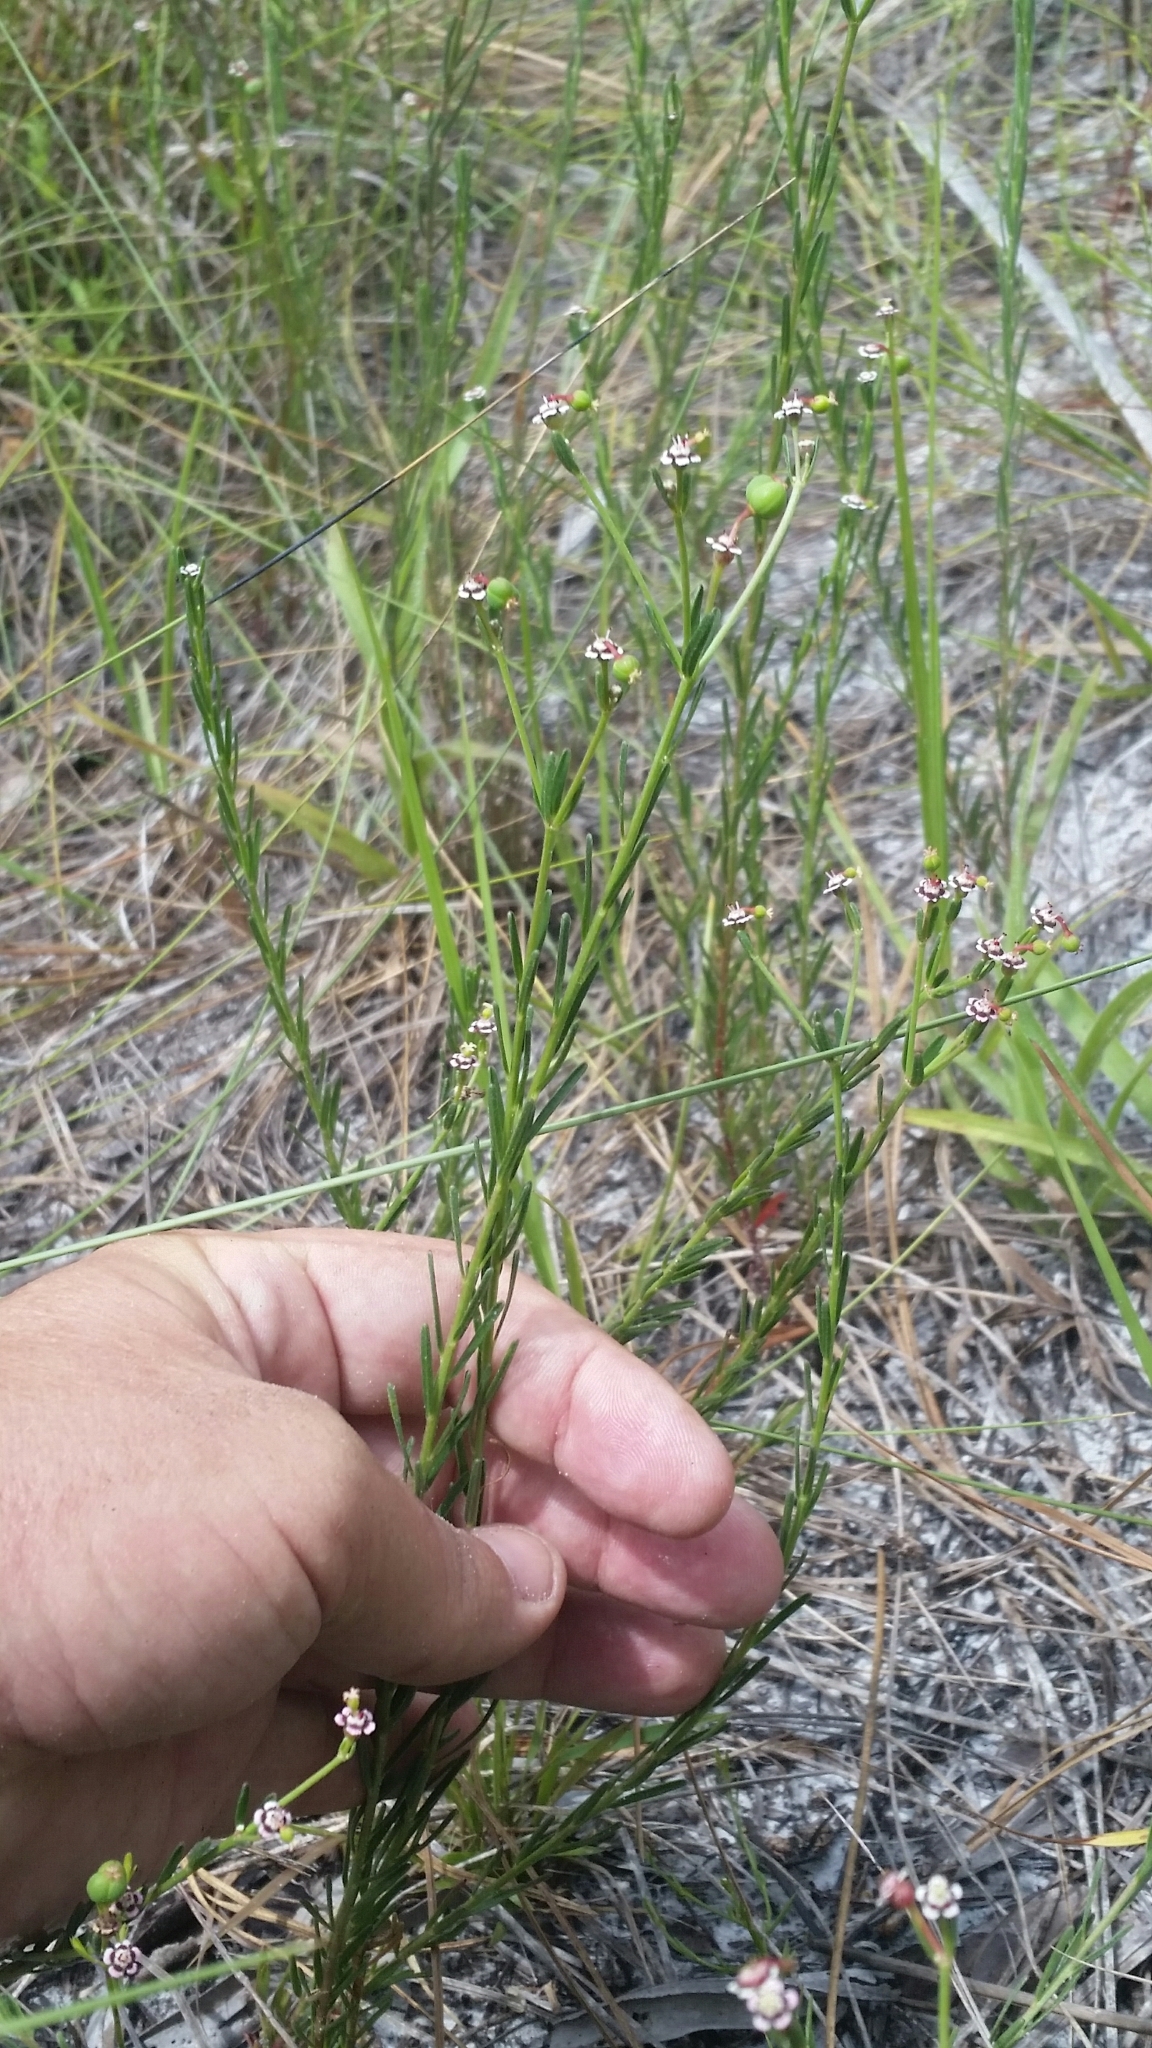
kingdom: Plantae
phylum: Tracheophyta
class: Magnoliopsida
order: Malpighiales
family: Euphorbiaceae
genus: Euphorbia
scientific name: Euphorbia polyphylla
